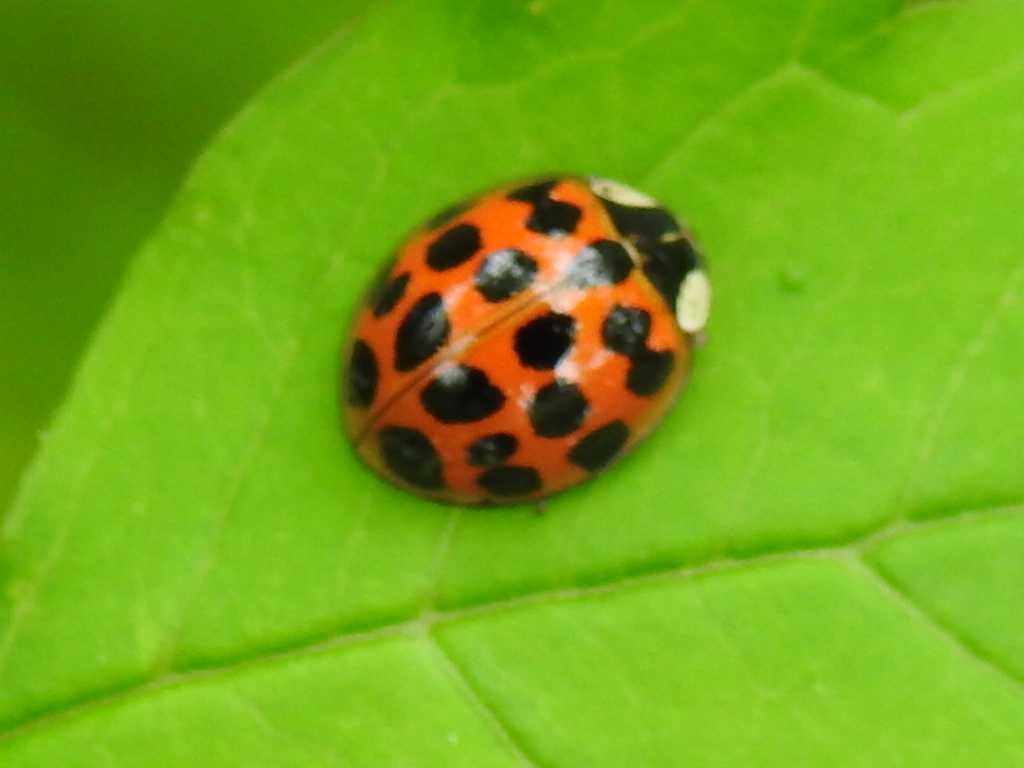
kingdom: Animalia
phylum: Arthropoda
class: Insecta
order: Coleoptera
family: Coccinellidae
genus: Harmonia
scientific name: Harmonia axyridis
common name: Harlequin ladybird
